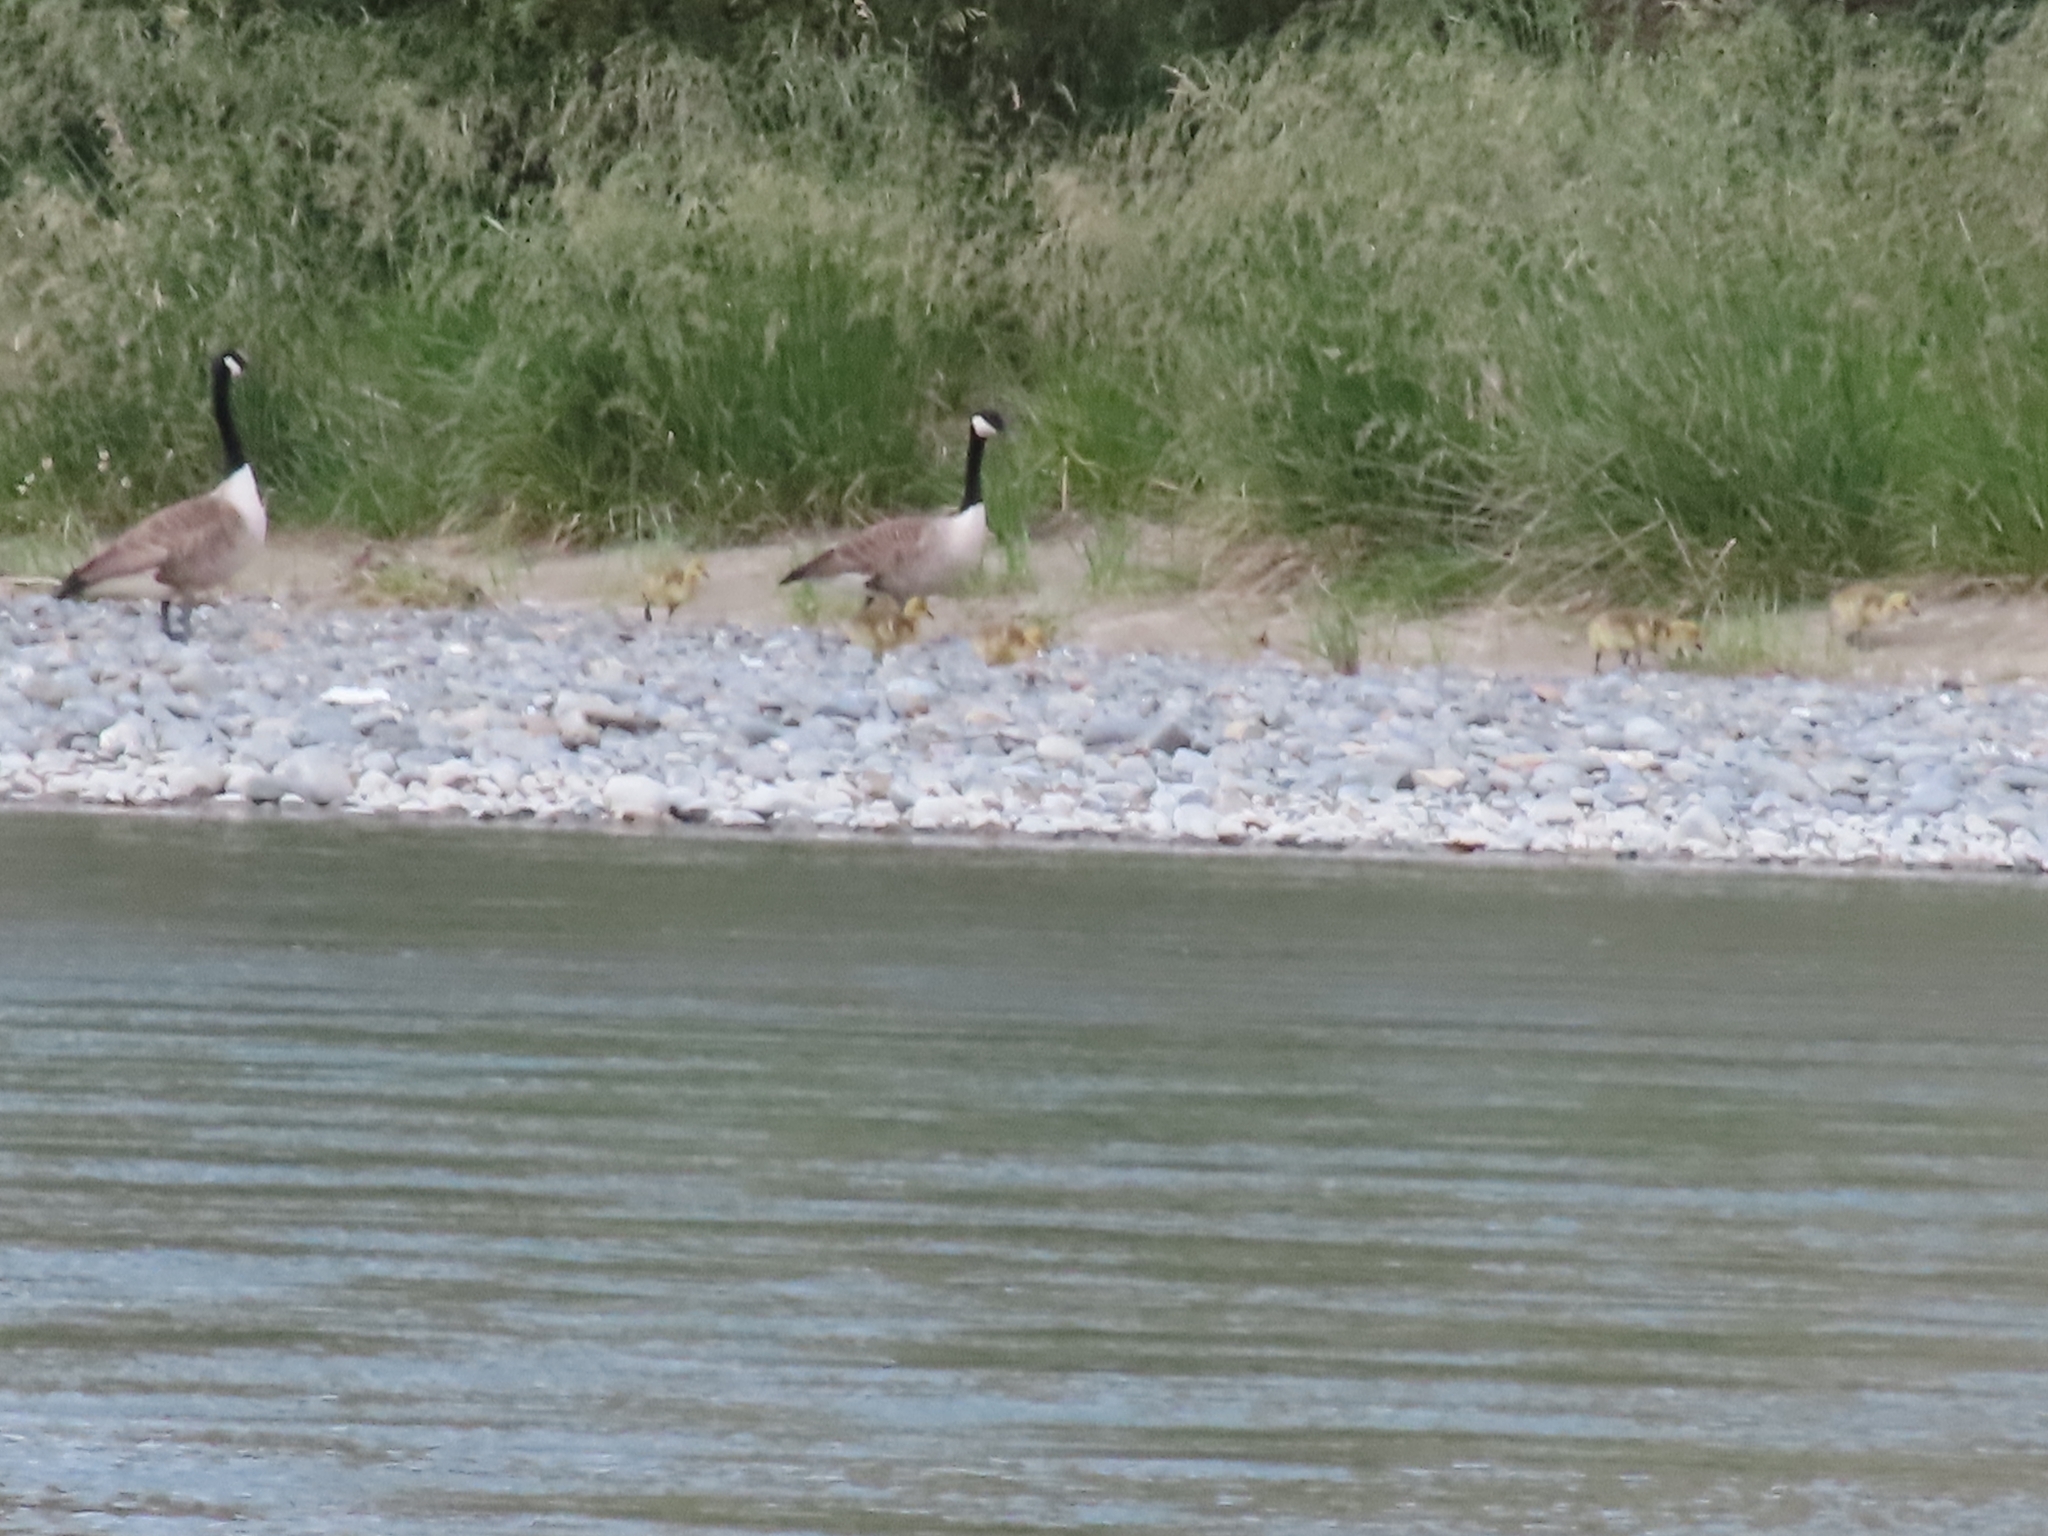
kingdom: Animalia
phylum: Chordata
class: Aves
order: Anseriformes
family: Anatidae
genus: Branta
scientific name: Branta canadensis
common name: Canada goose
